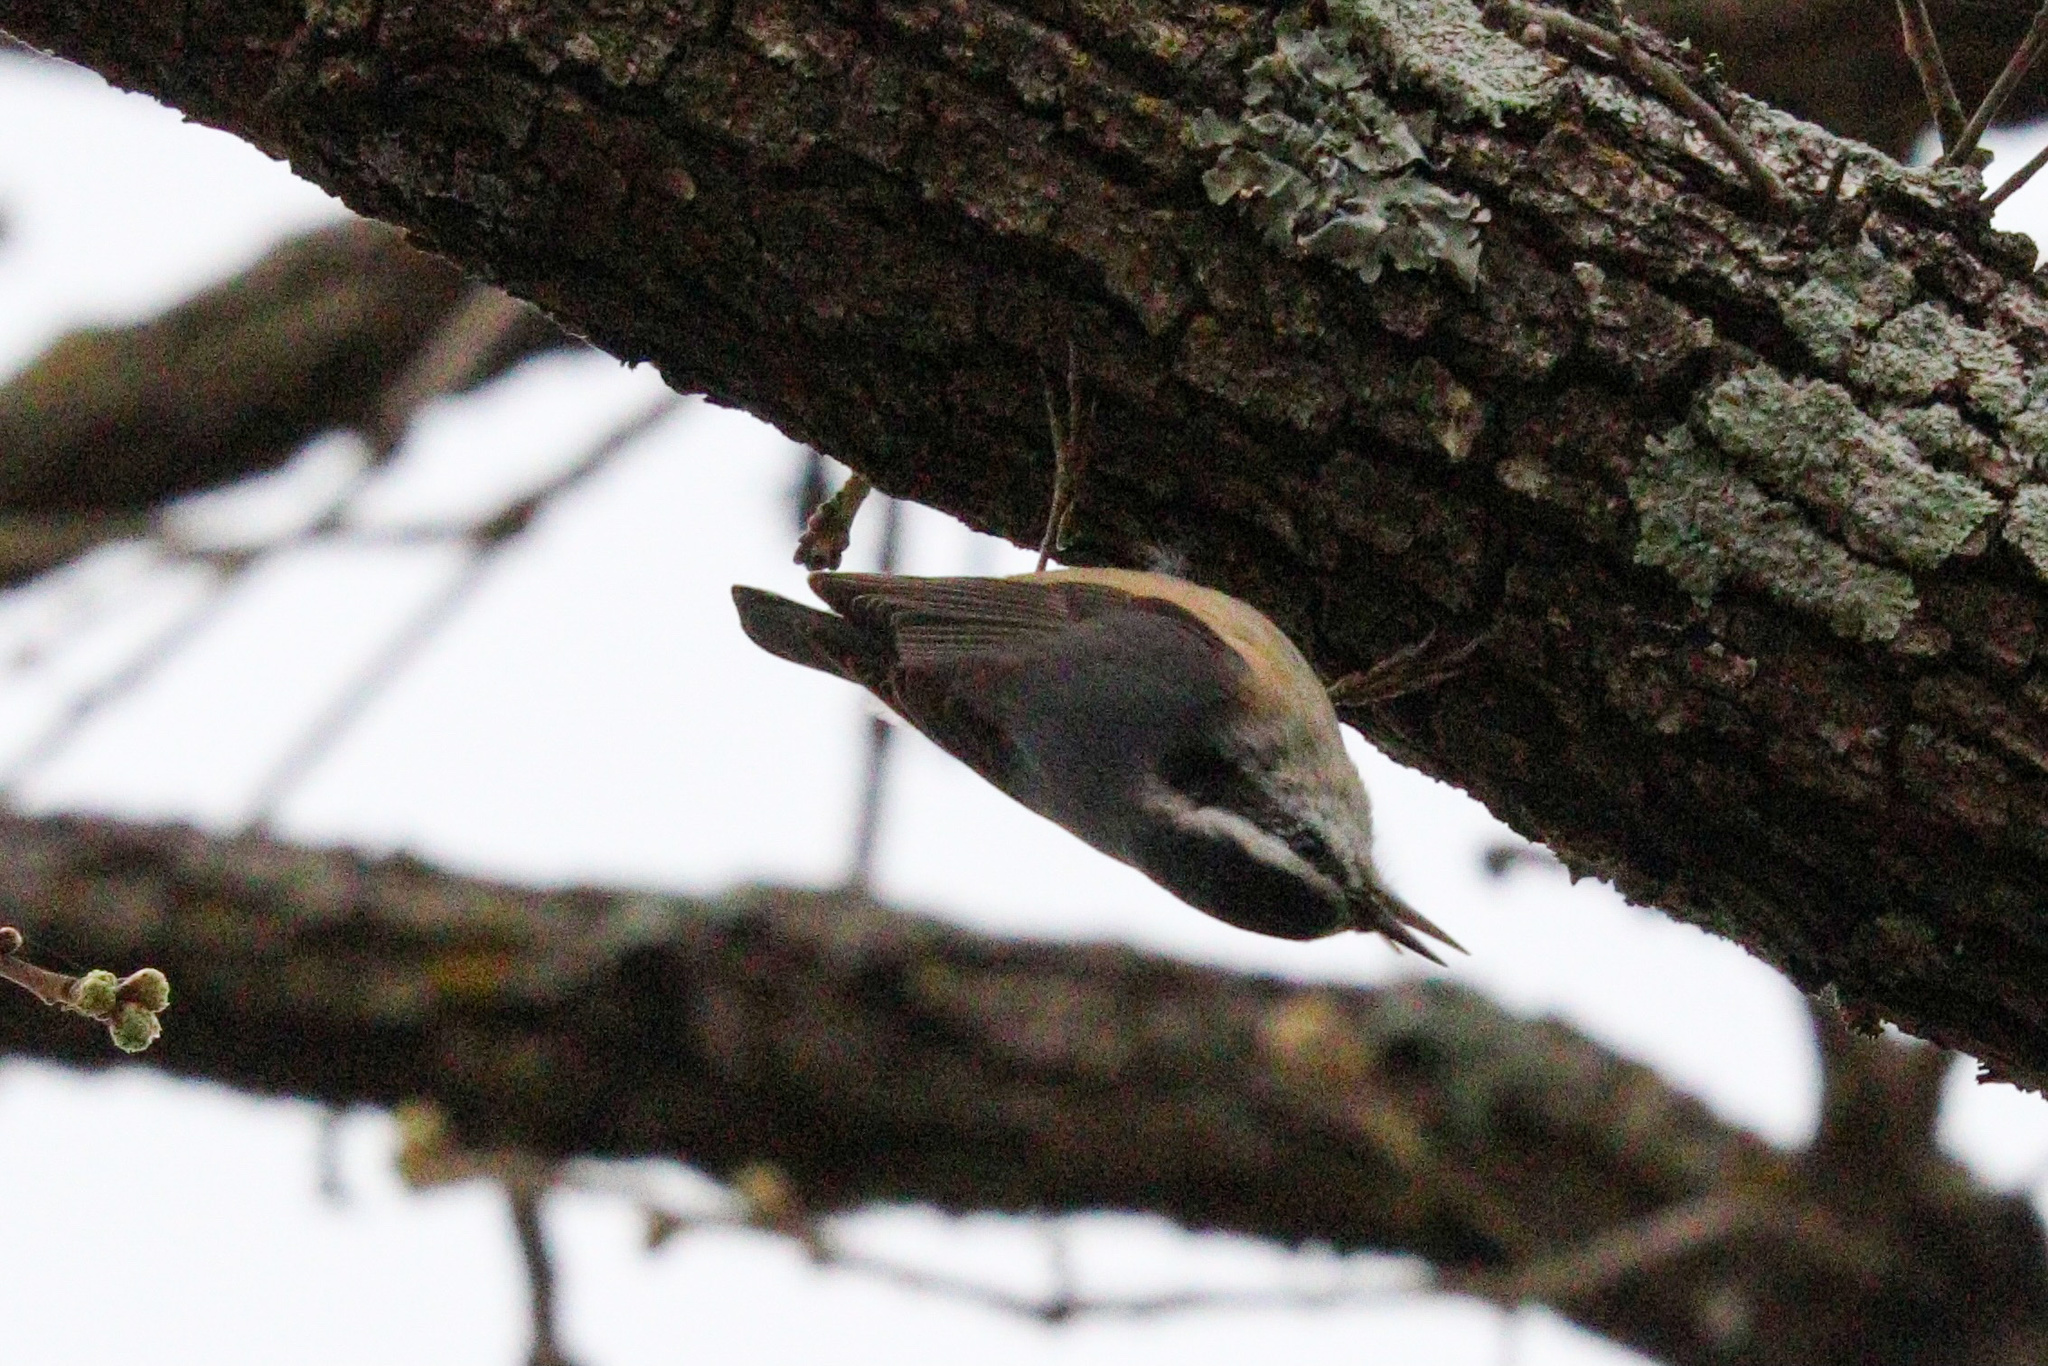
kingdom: Animalia
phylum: Chordata
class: Aves
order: Passeriformes
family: Sittidae
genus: Sitta
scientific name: Sitta canadensis
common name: Red-breasted nuthatch
